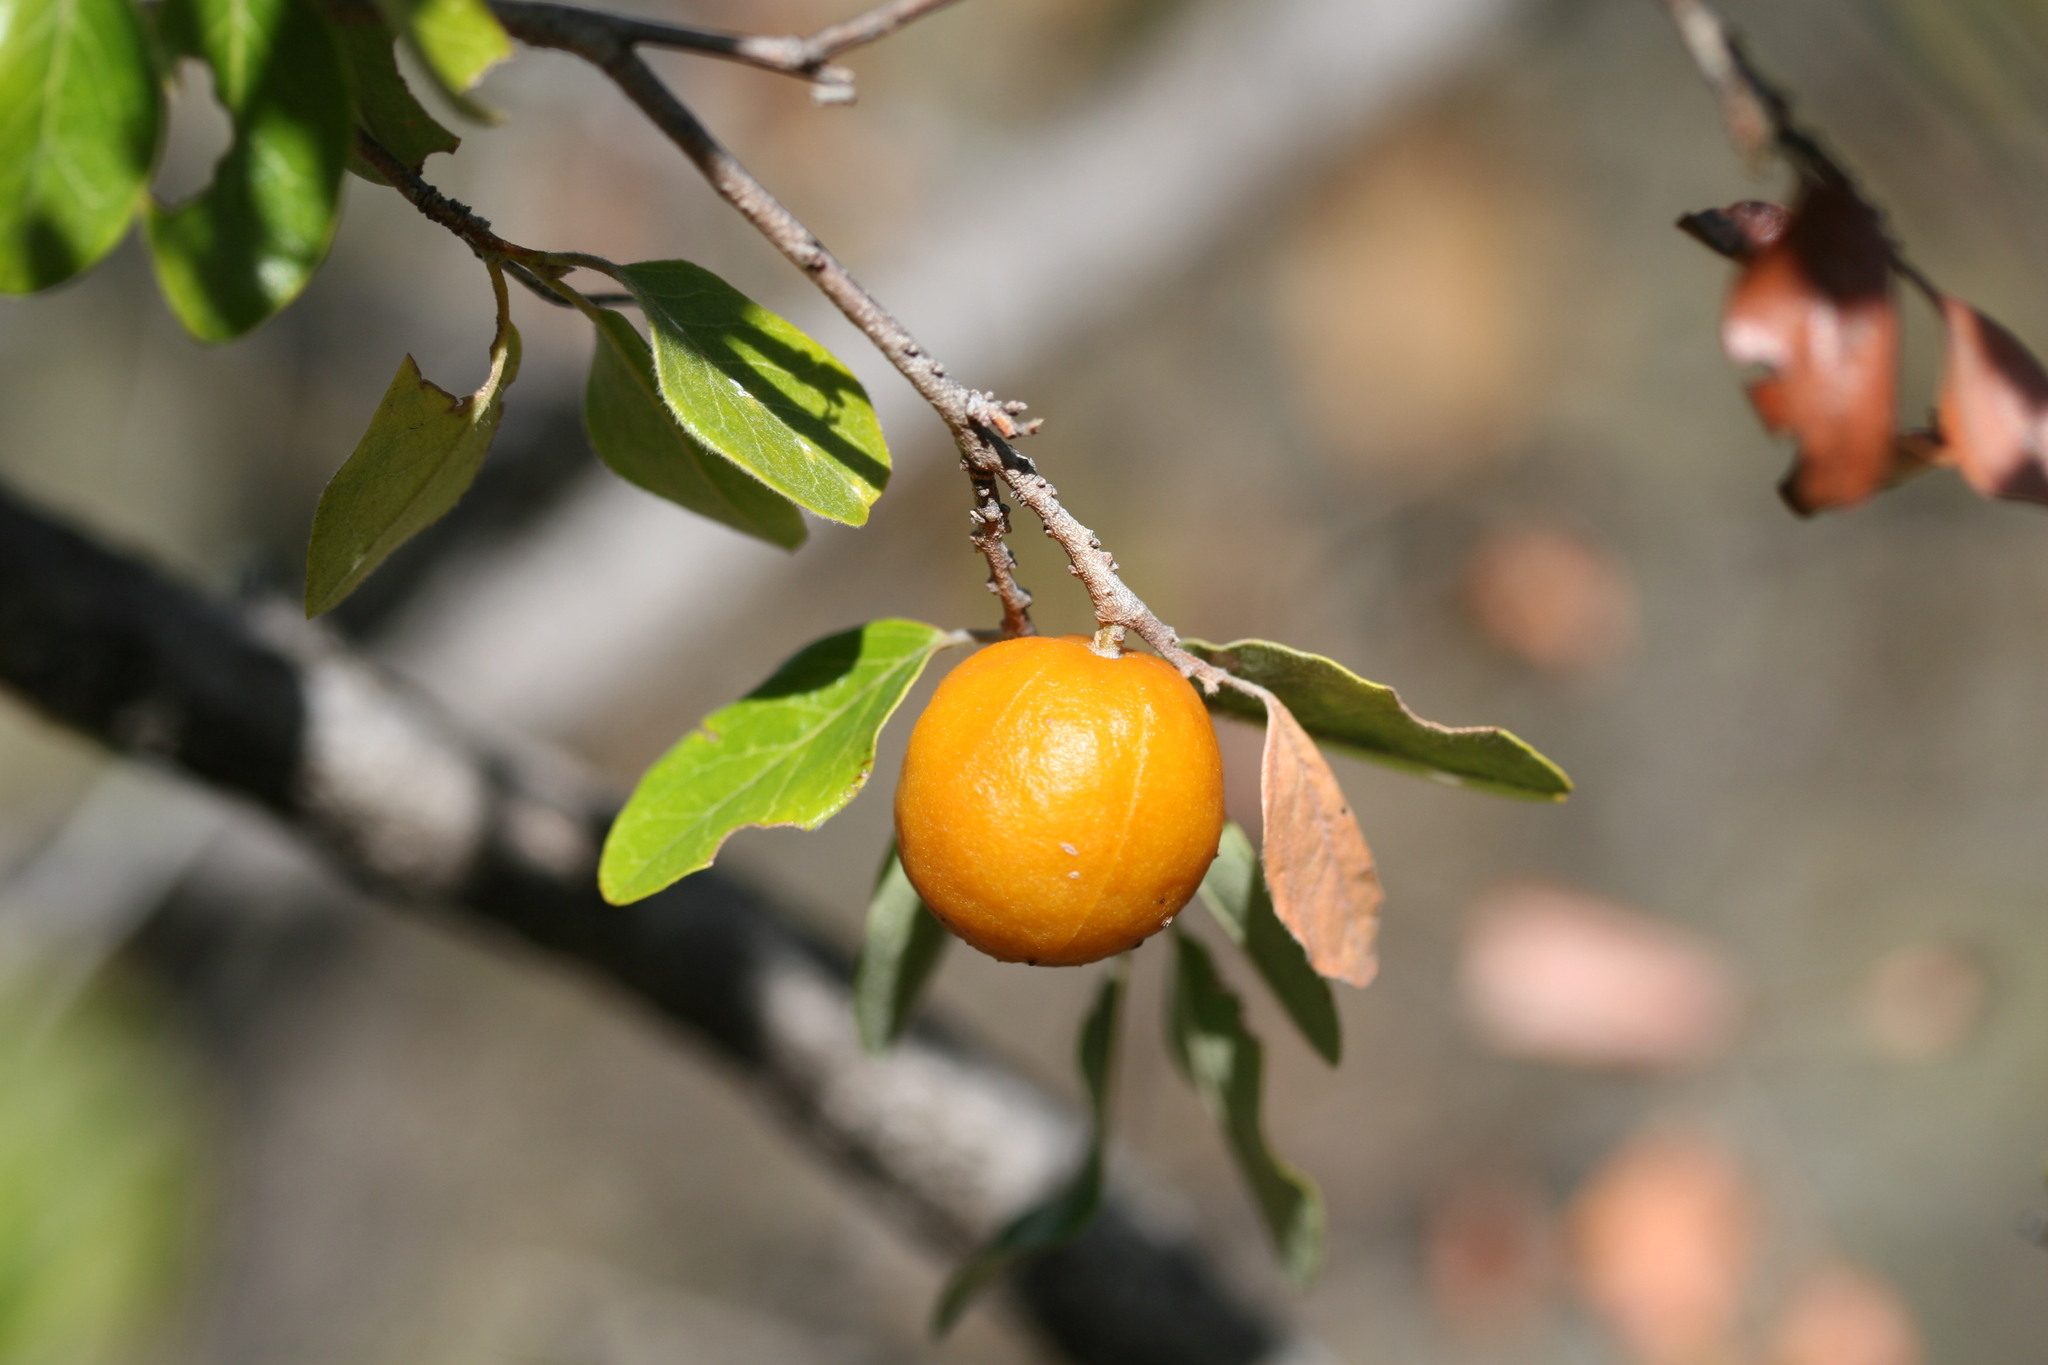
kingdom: Plantae
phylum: Tracheophyta
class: Magnoliopsida
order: Malpighiales
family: Picrodendraceae
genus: Petalostigma
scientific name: Petalostigma pubescens
